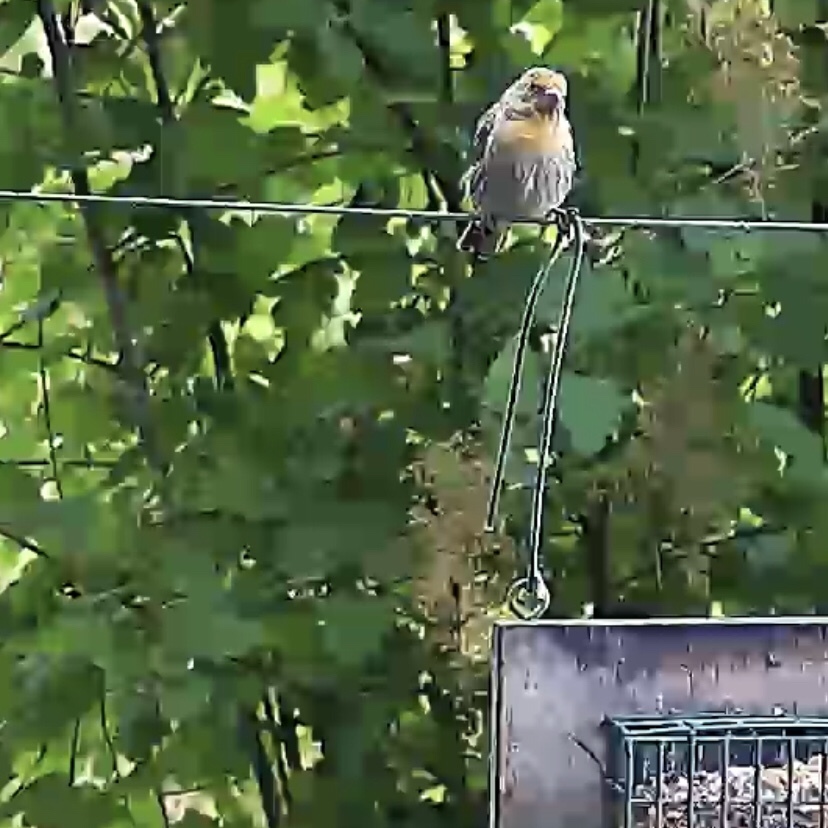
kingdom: Animalia
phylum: Chordata
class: Aves
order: Passeriformes
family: Fringillidae
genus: Haemorhous
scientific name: Haemorhous mexicanus
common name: House finch
